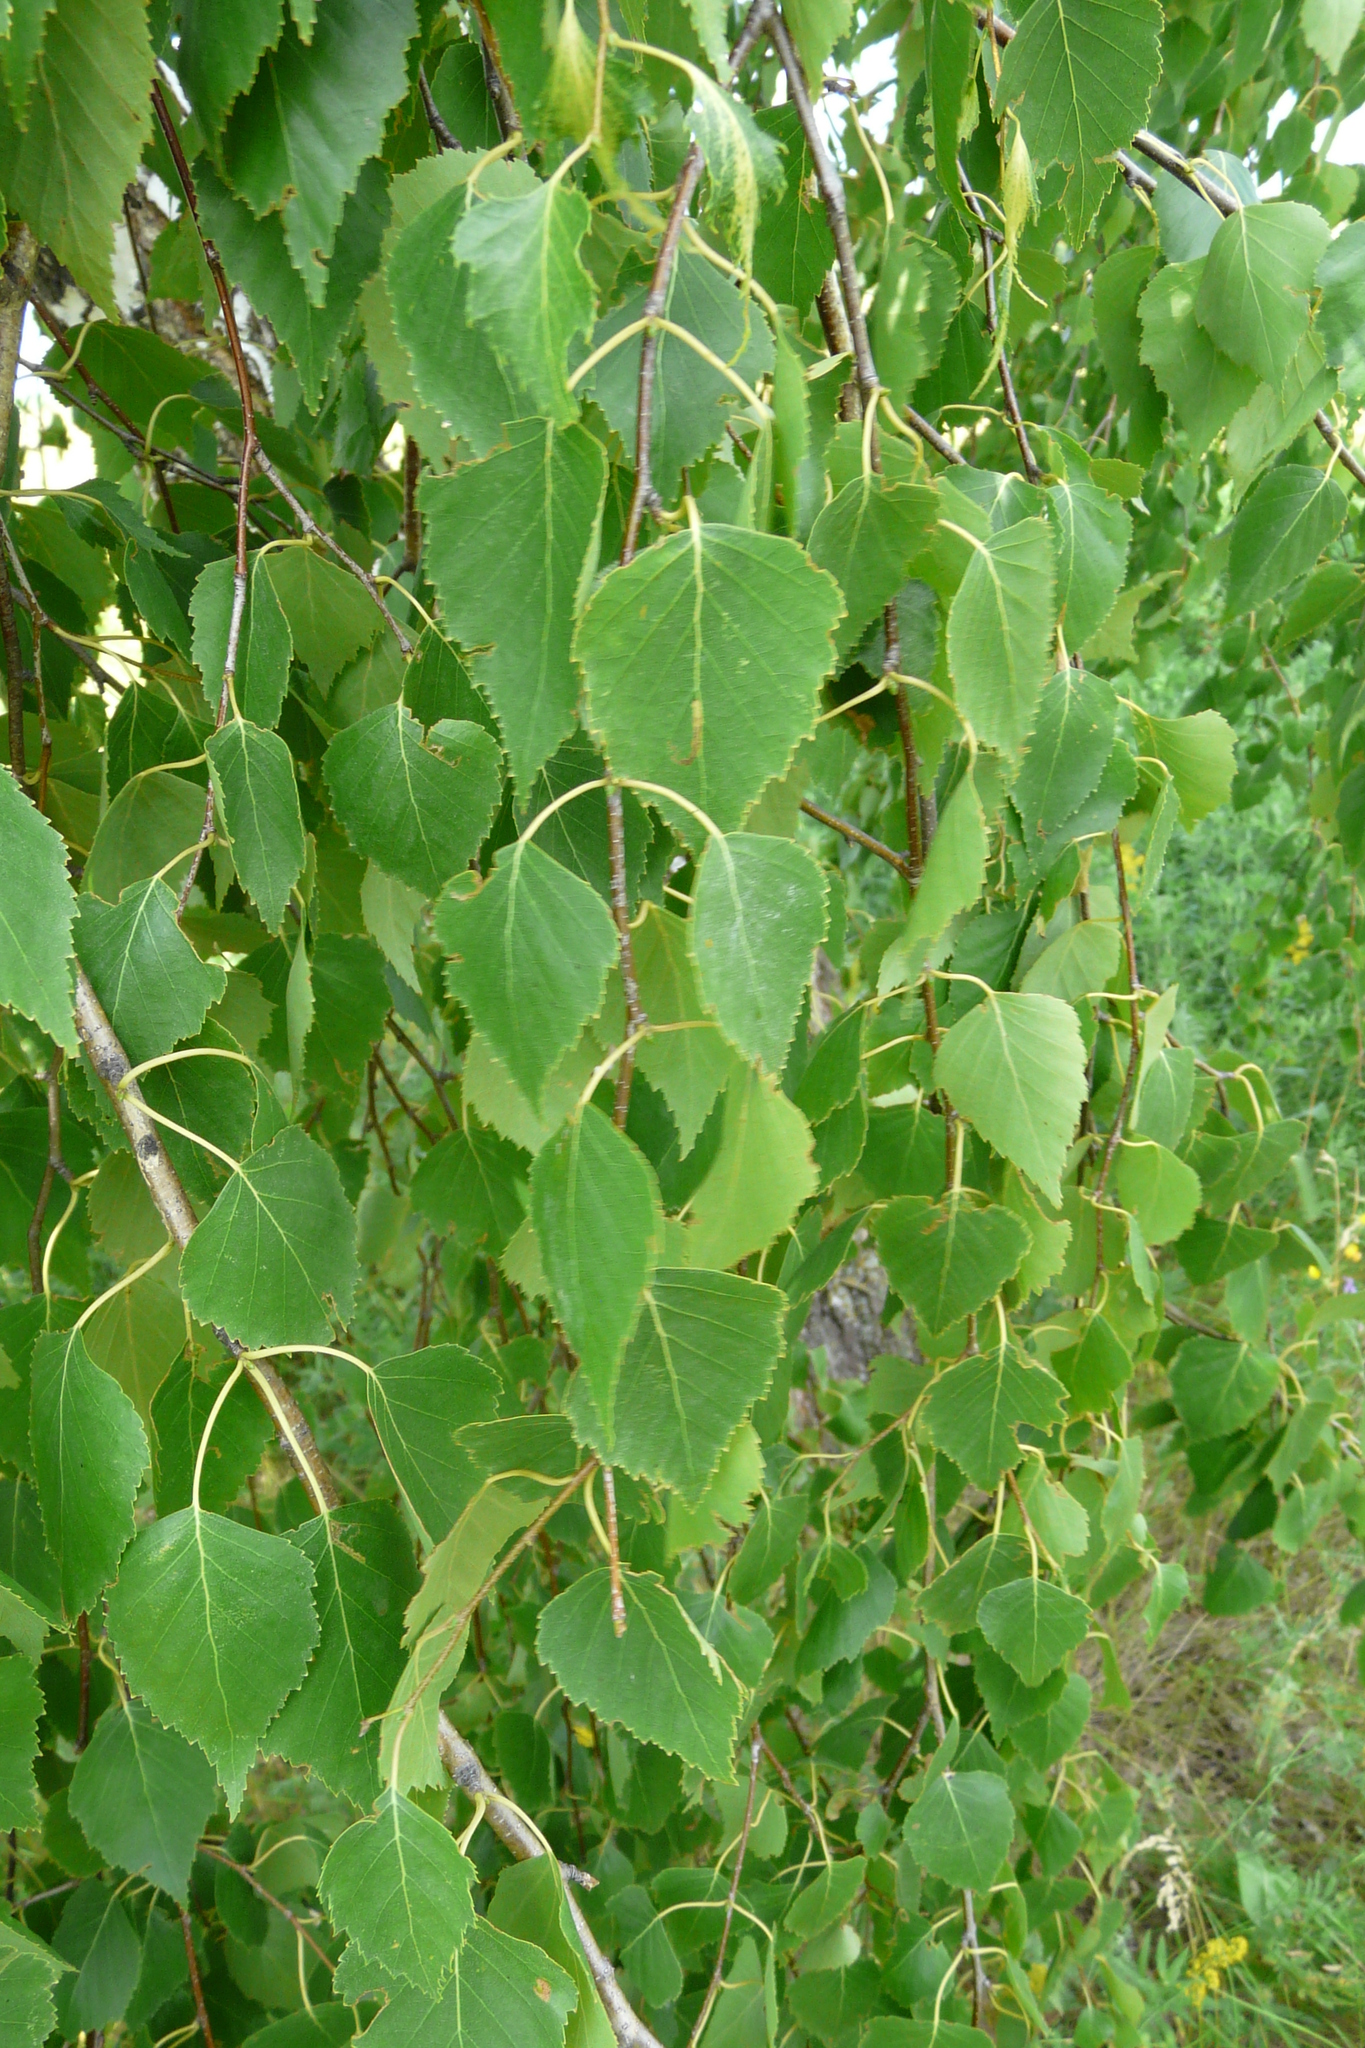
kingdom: Plantae
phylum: Tracheophyta
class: Magnoliopsida
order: Fagales
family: Betulaceae
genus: Betula
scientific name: Betula pendula
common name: Silver birch
